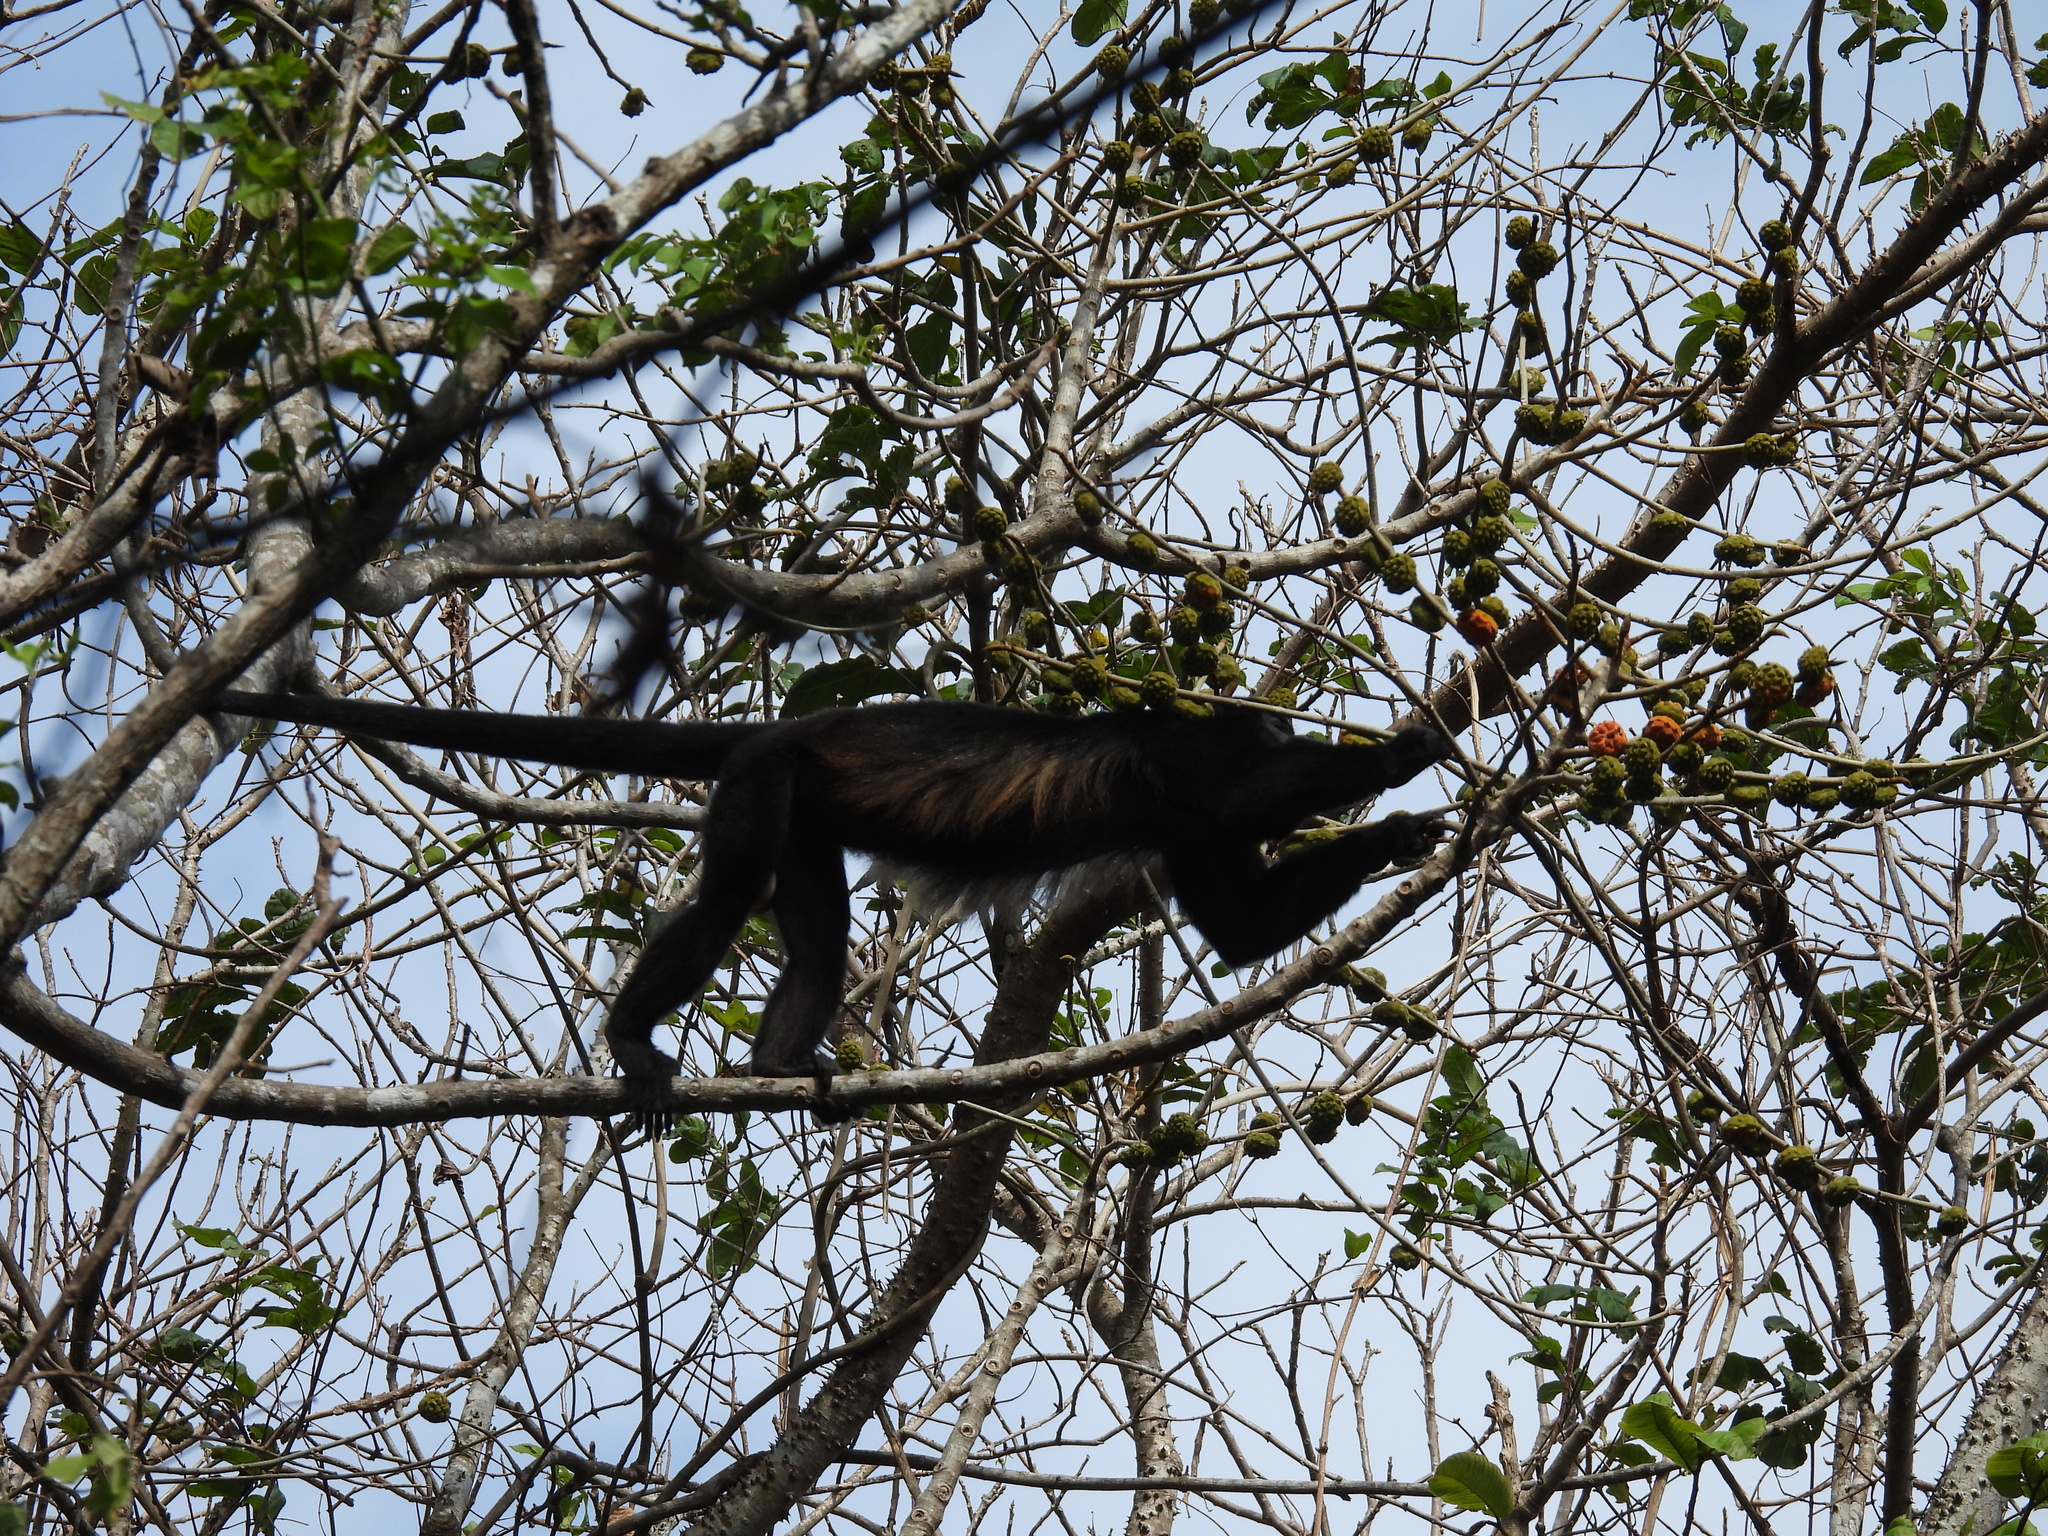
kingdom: Animalia
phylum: Chordata
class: Mammalia
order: Primates
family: Atelidae
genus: Alouatta
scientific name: Alouatta palliata
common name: Mantled howler
